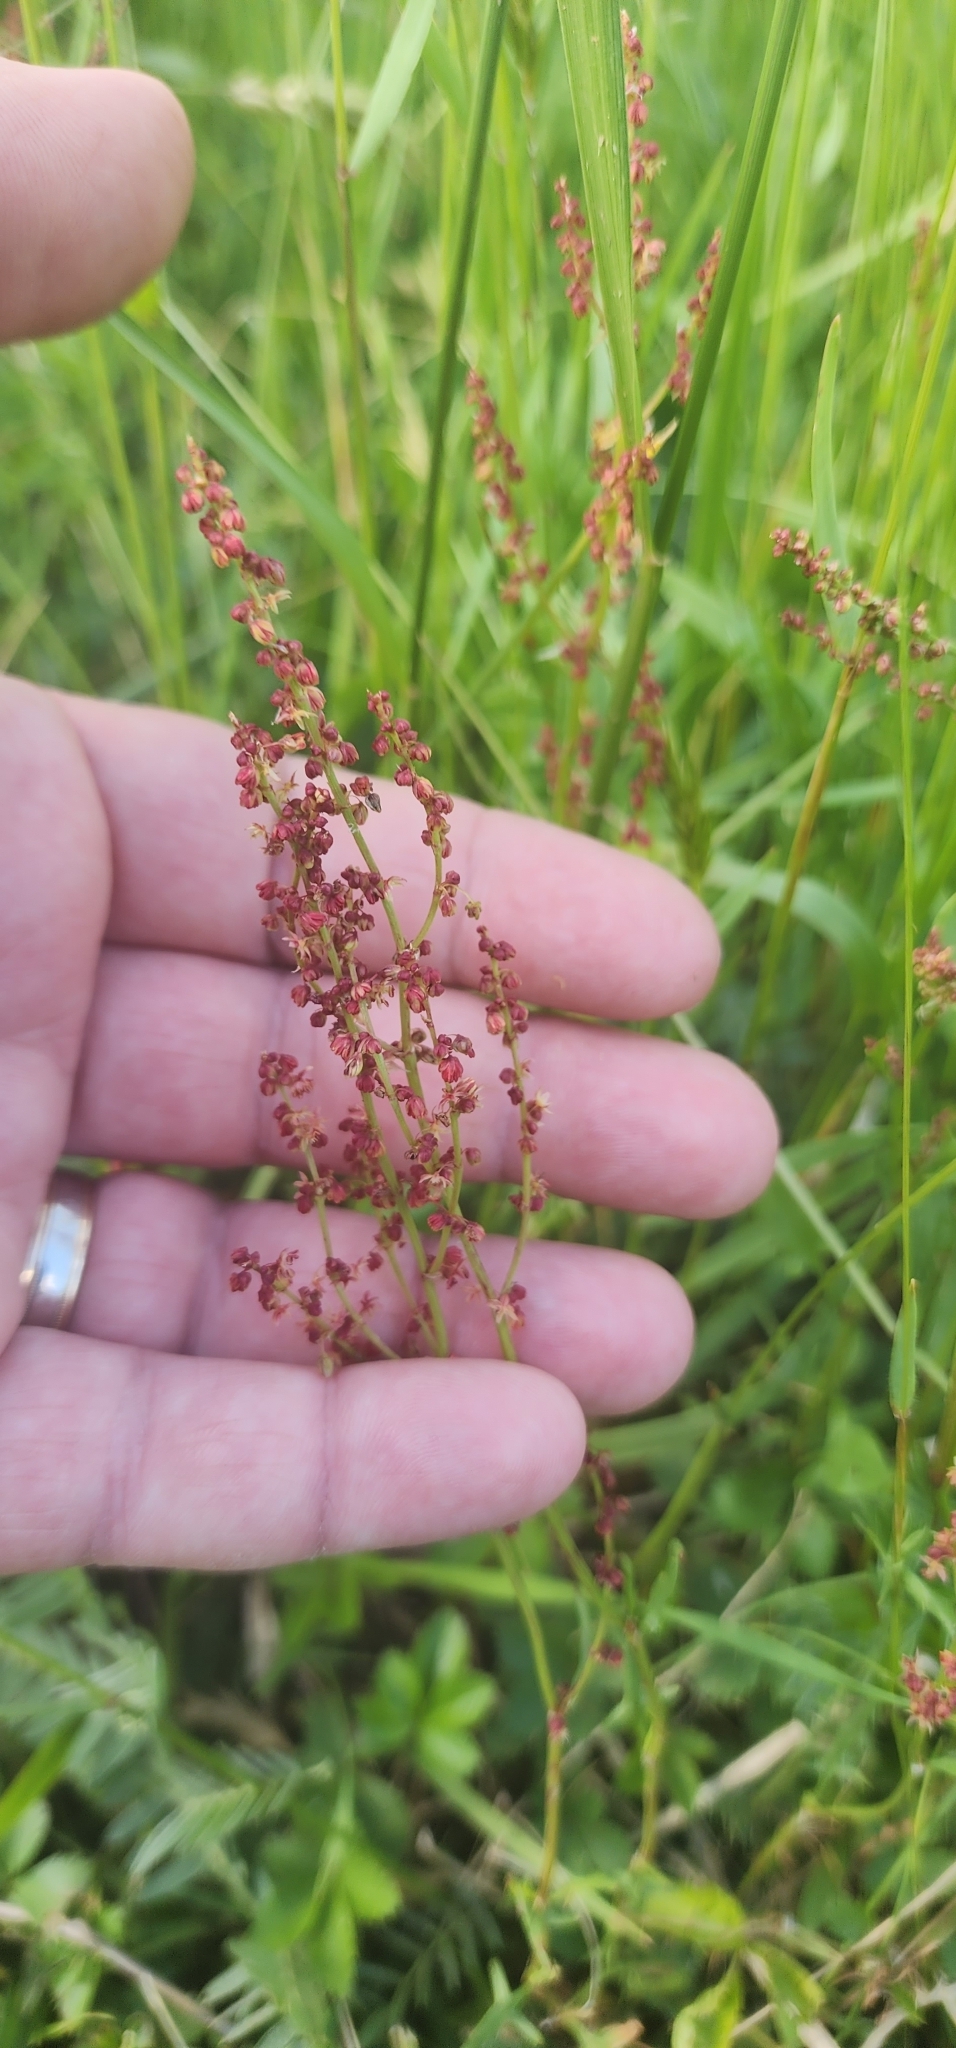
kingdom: Plantae
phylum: Tracheophyta
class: Magnoliopsida
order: Caryophyllales
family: Polygonaceae
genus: Rumex
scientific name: Rumex acetosella
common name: Common sheep sorrel
